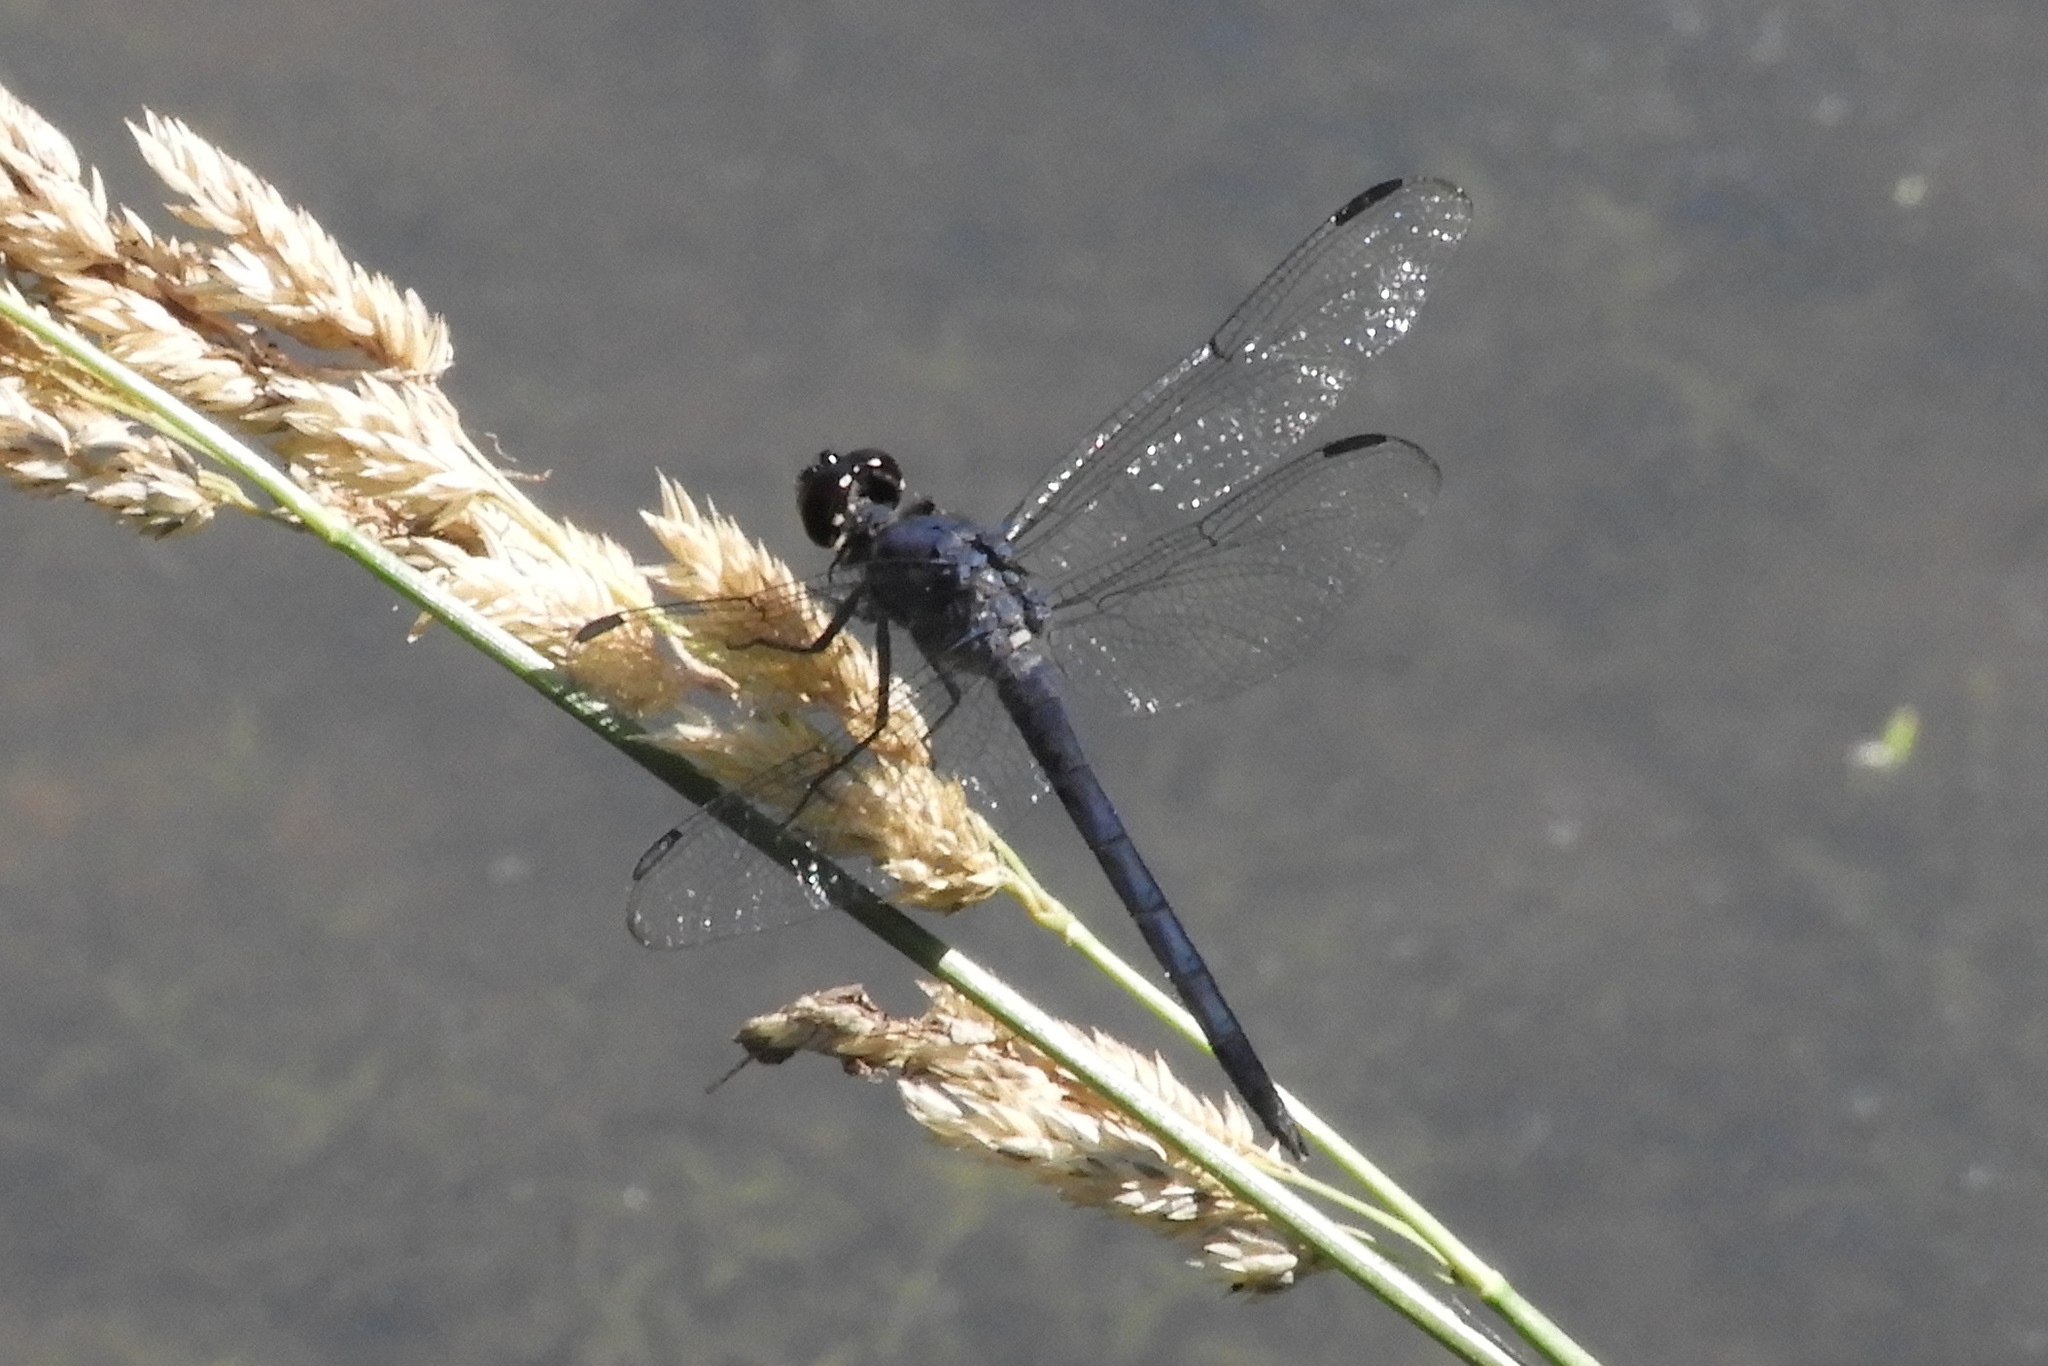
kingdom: Animalia
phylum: Arthropoda
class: Insecta
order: Odonata
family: Libellulidae
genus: Libellula
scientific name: Libellula incesta
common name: Slaty skimmer
